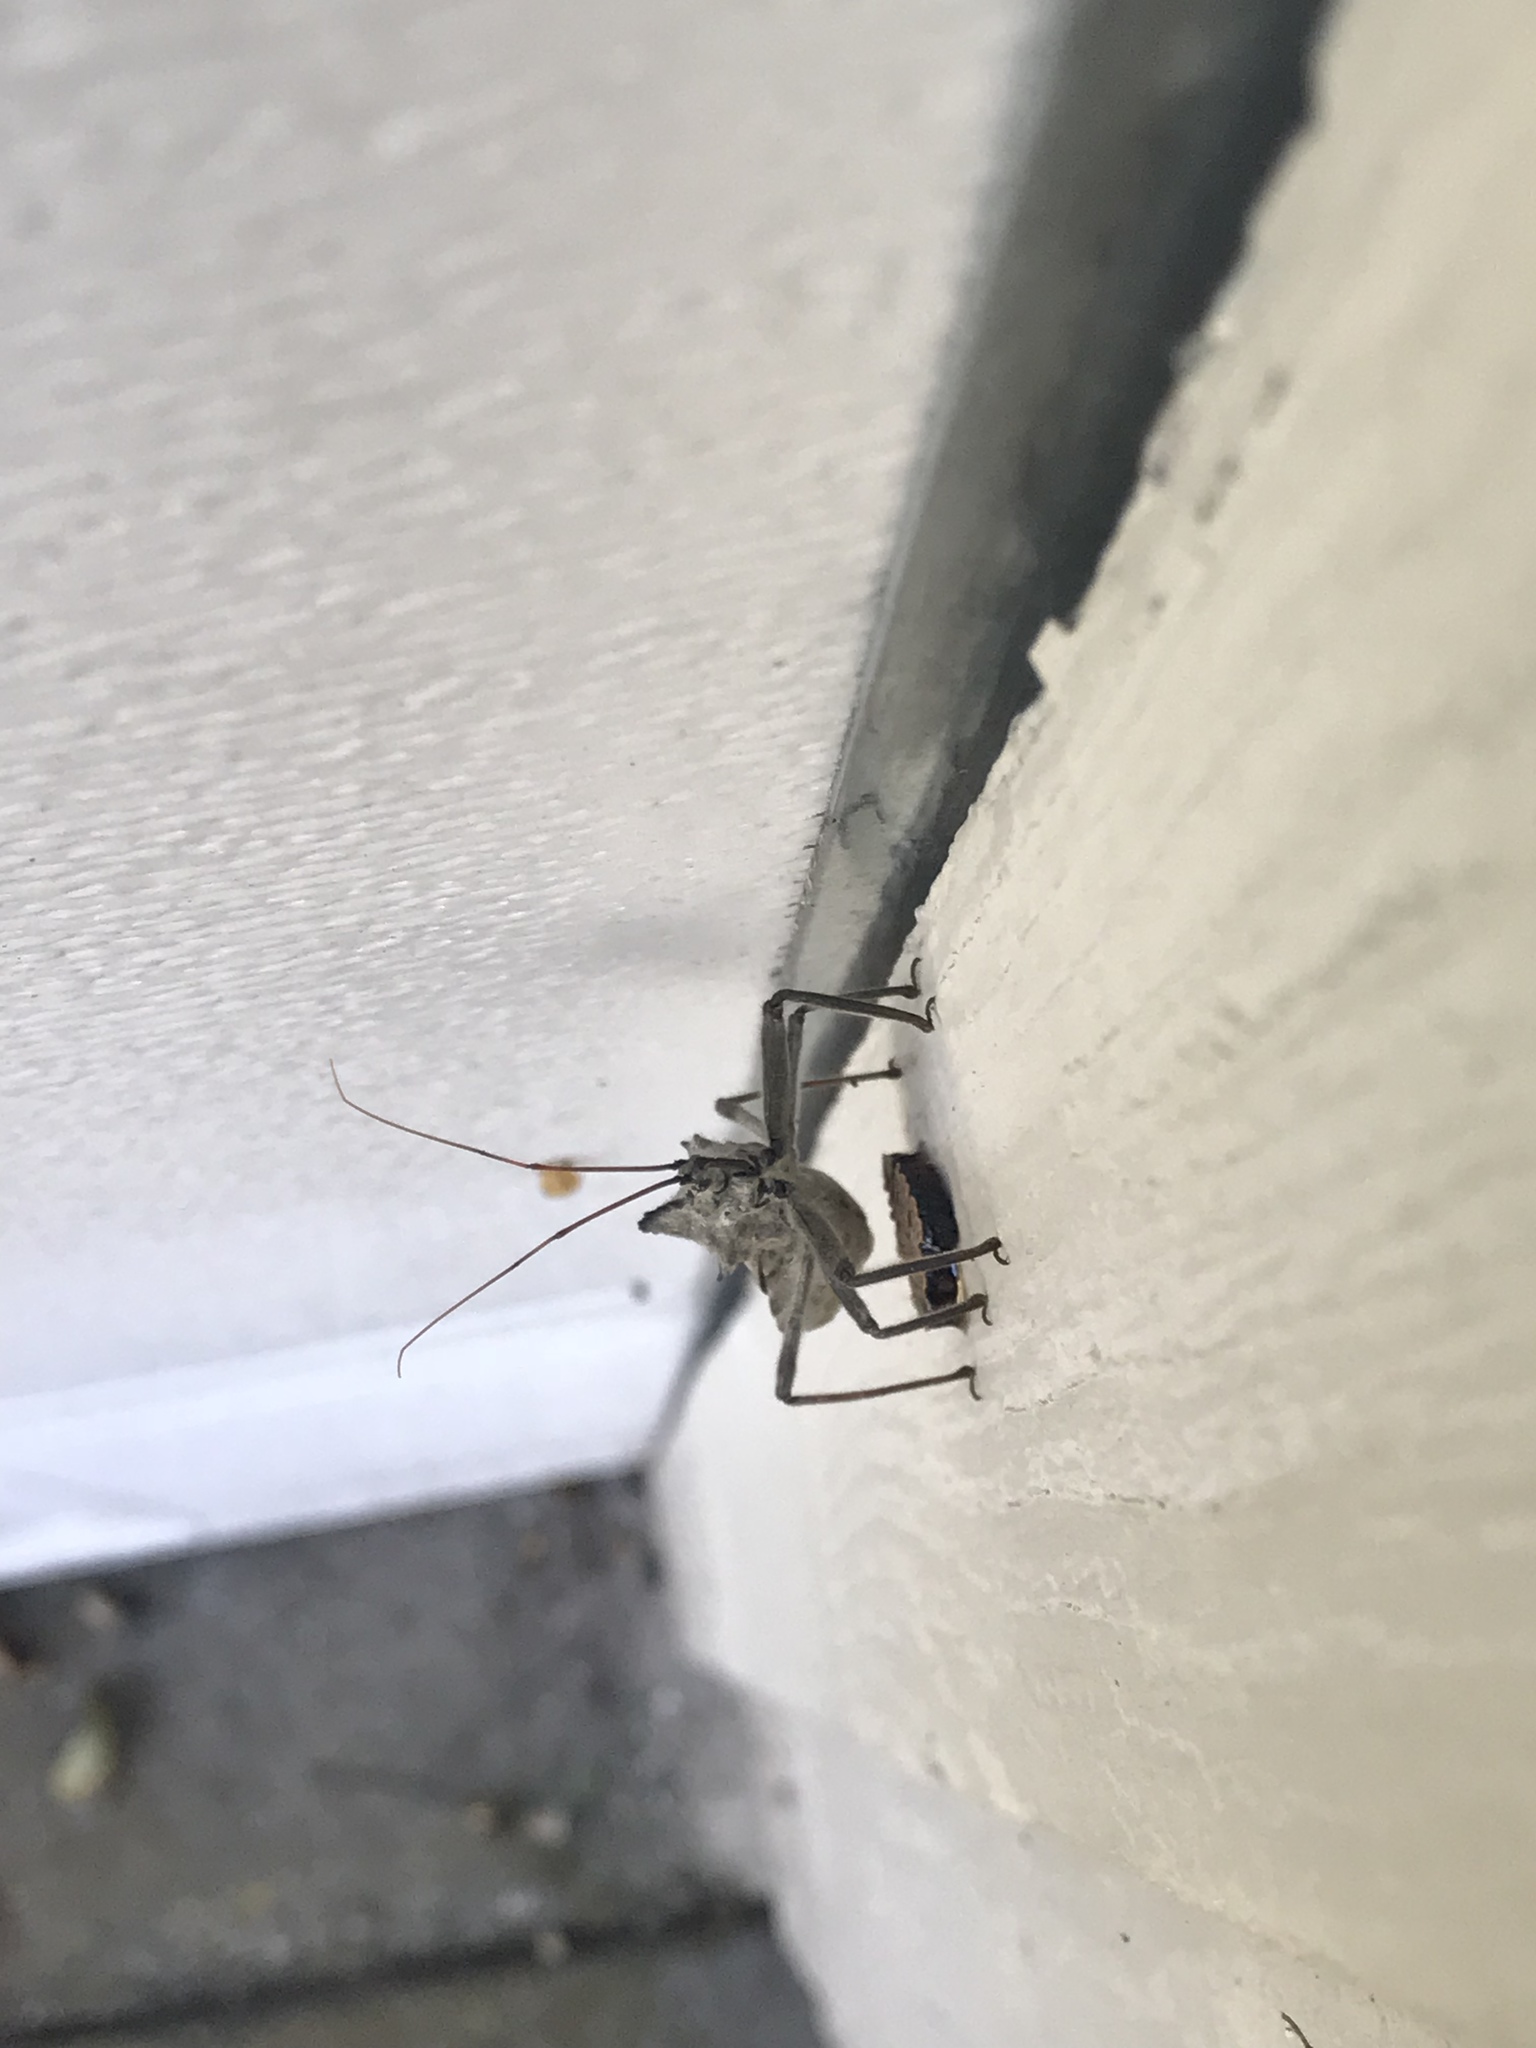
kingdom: Animalia
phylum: Arthropoda
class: Insecta
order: Hemiptera
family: Reduviidae
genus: Arilus
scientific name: Arilus cristatus
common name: North american wheel bug
